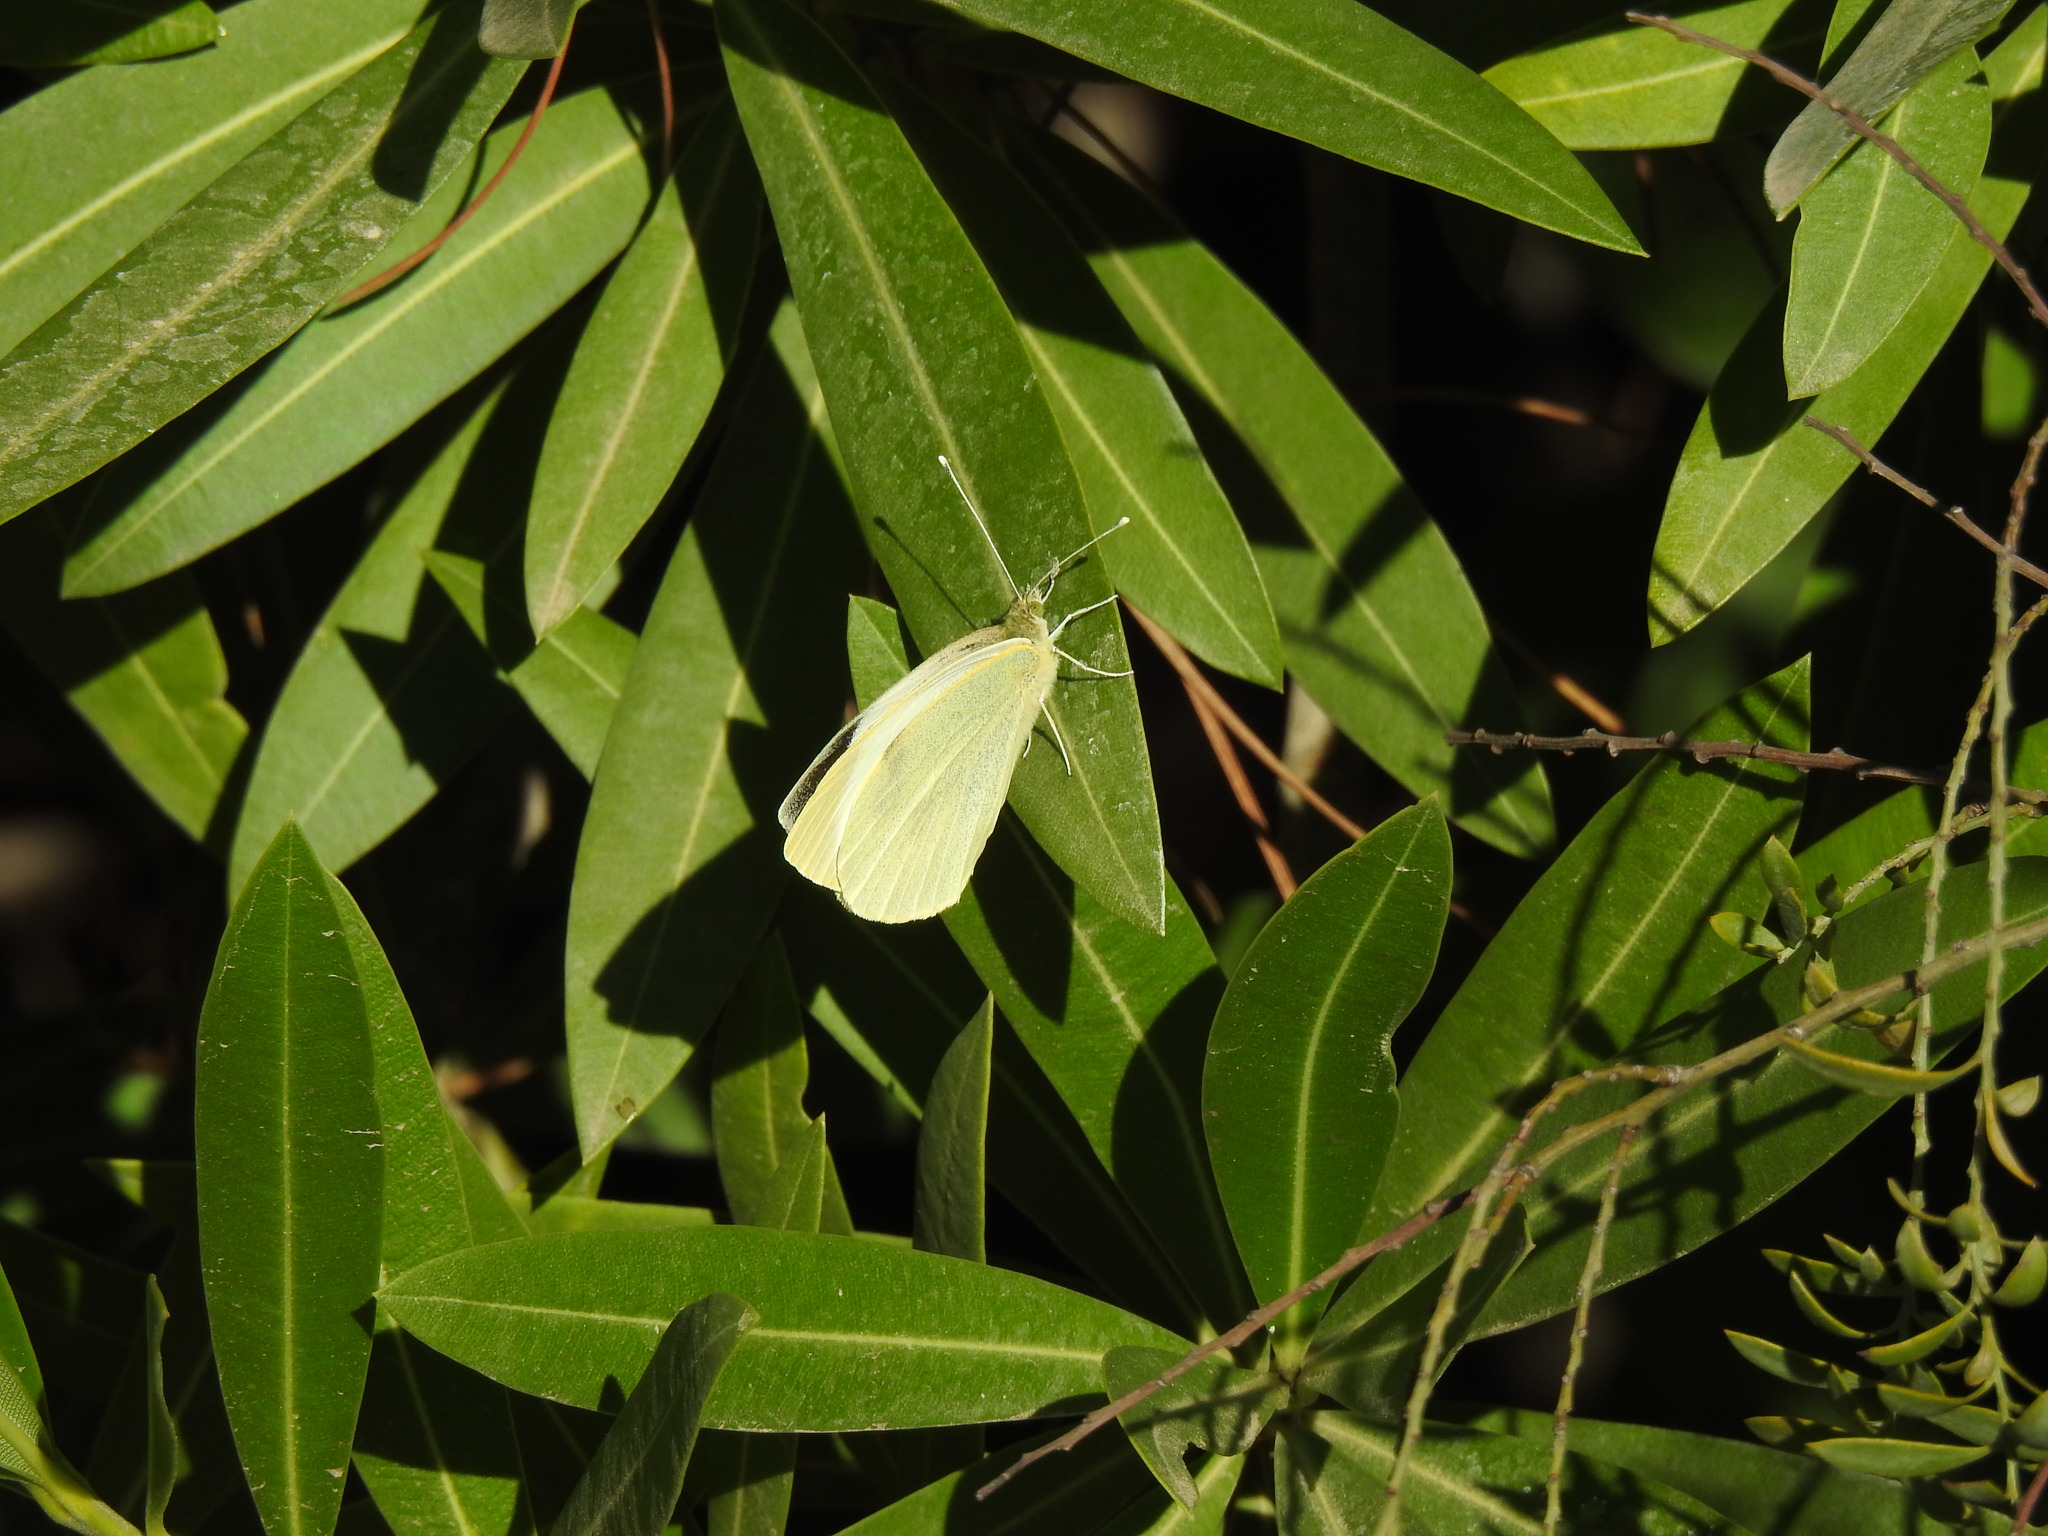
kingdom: Animalia
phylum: Arthropoda
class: Insecta
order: Lepidoptera
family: Pieridae
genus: Pieris
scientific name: Pieris brassicae
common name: Large white
